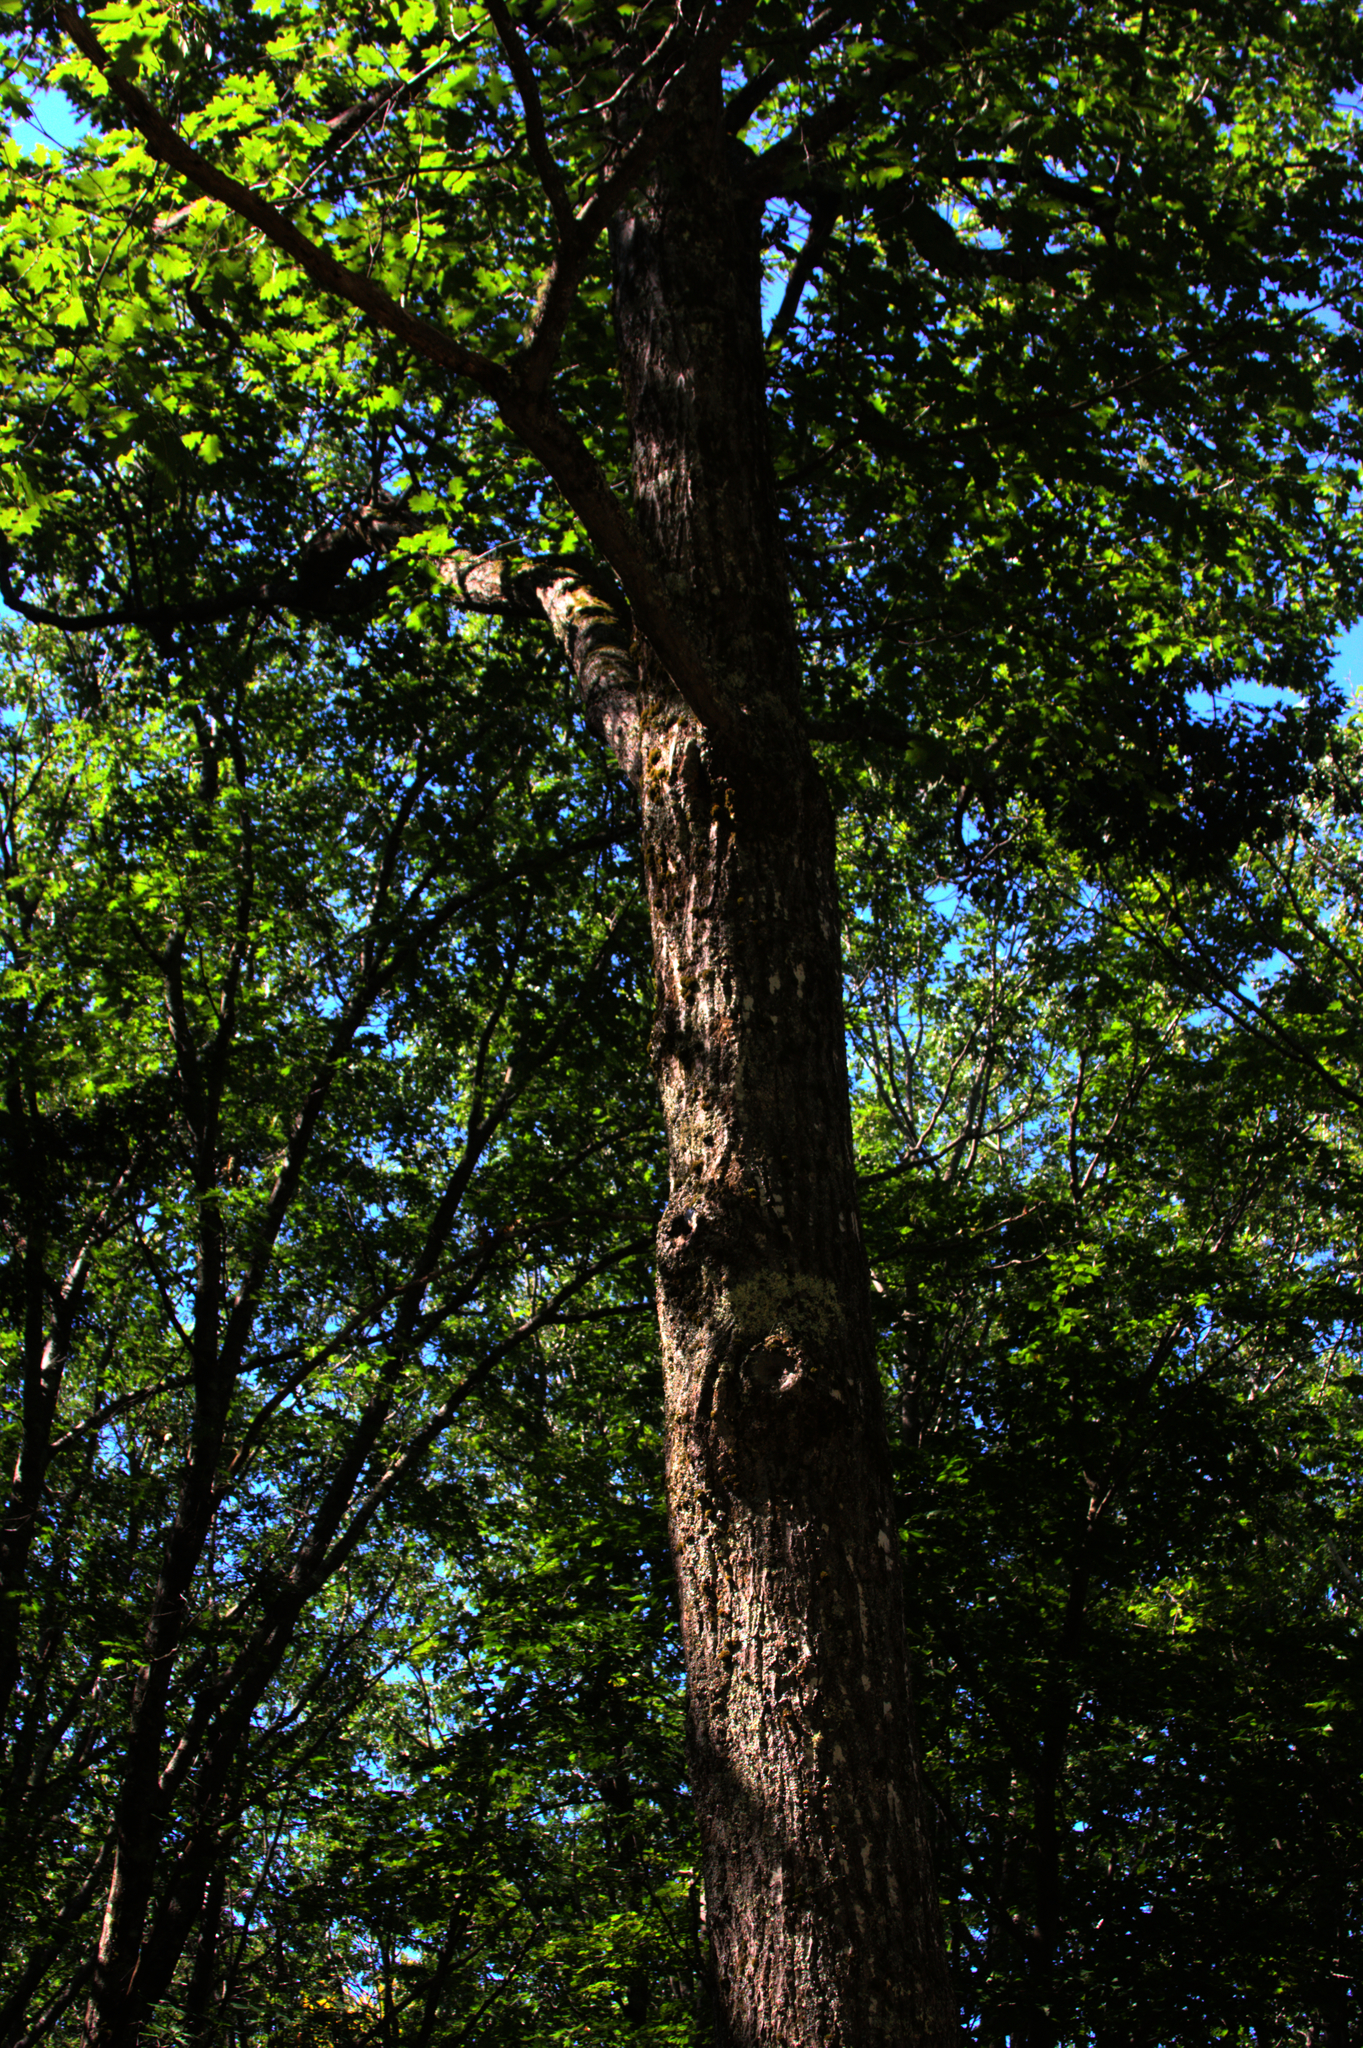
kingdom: Plantae
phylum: Tracheophyta
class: Magnoliopsida
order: Fagales
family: Fagaceae
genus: Quercus
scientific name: Quercus rubra
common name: Red oak
